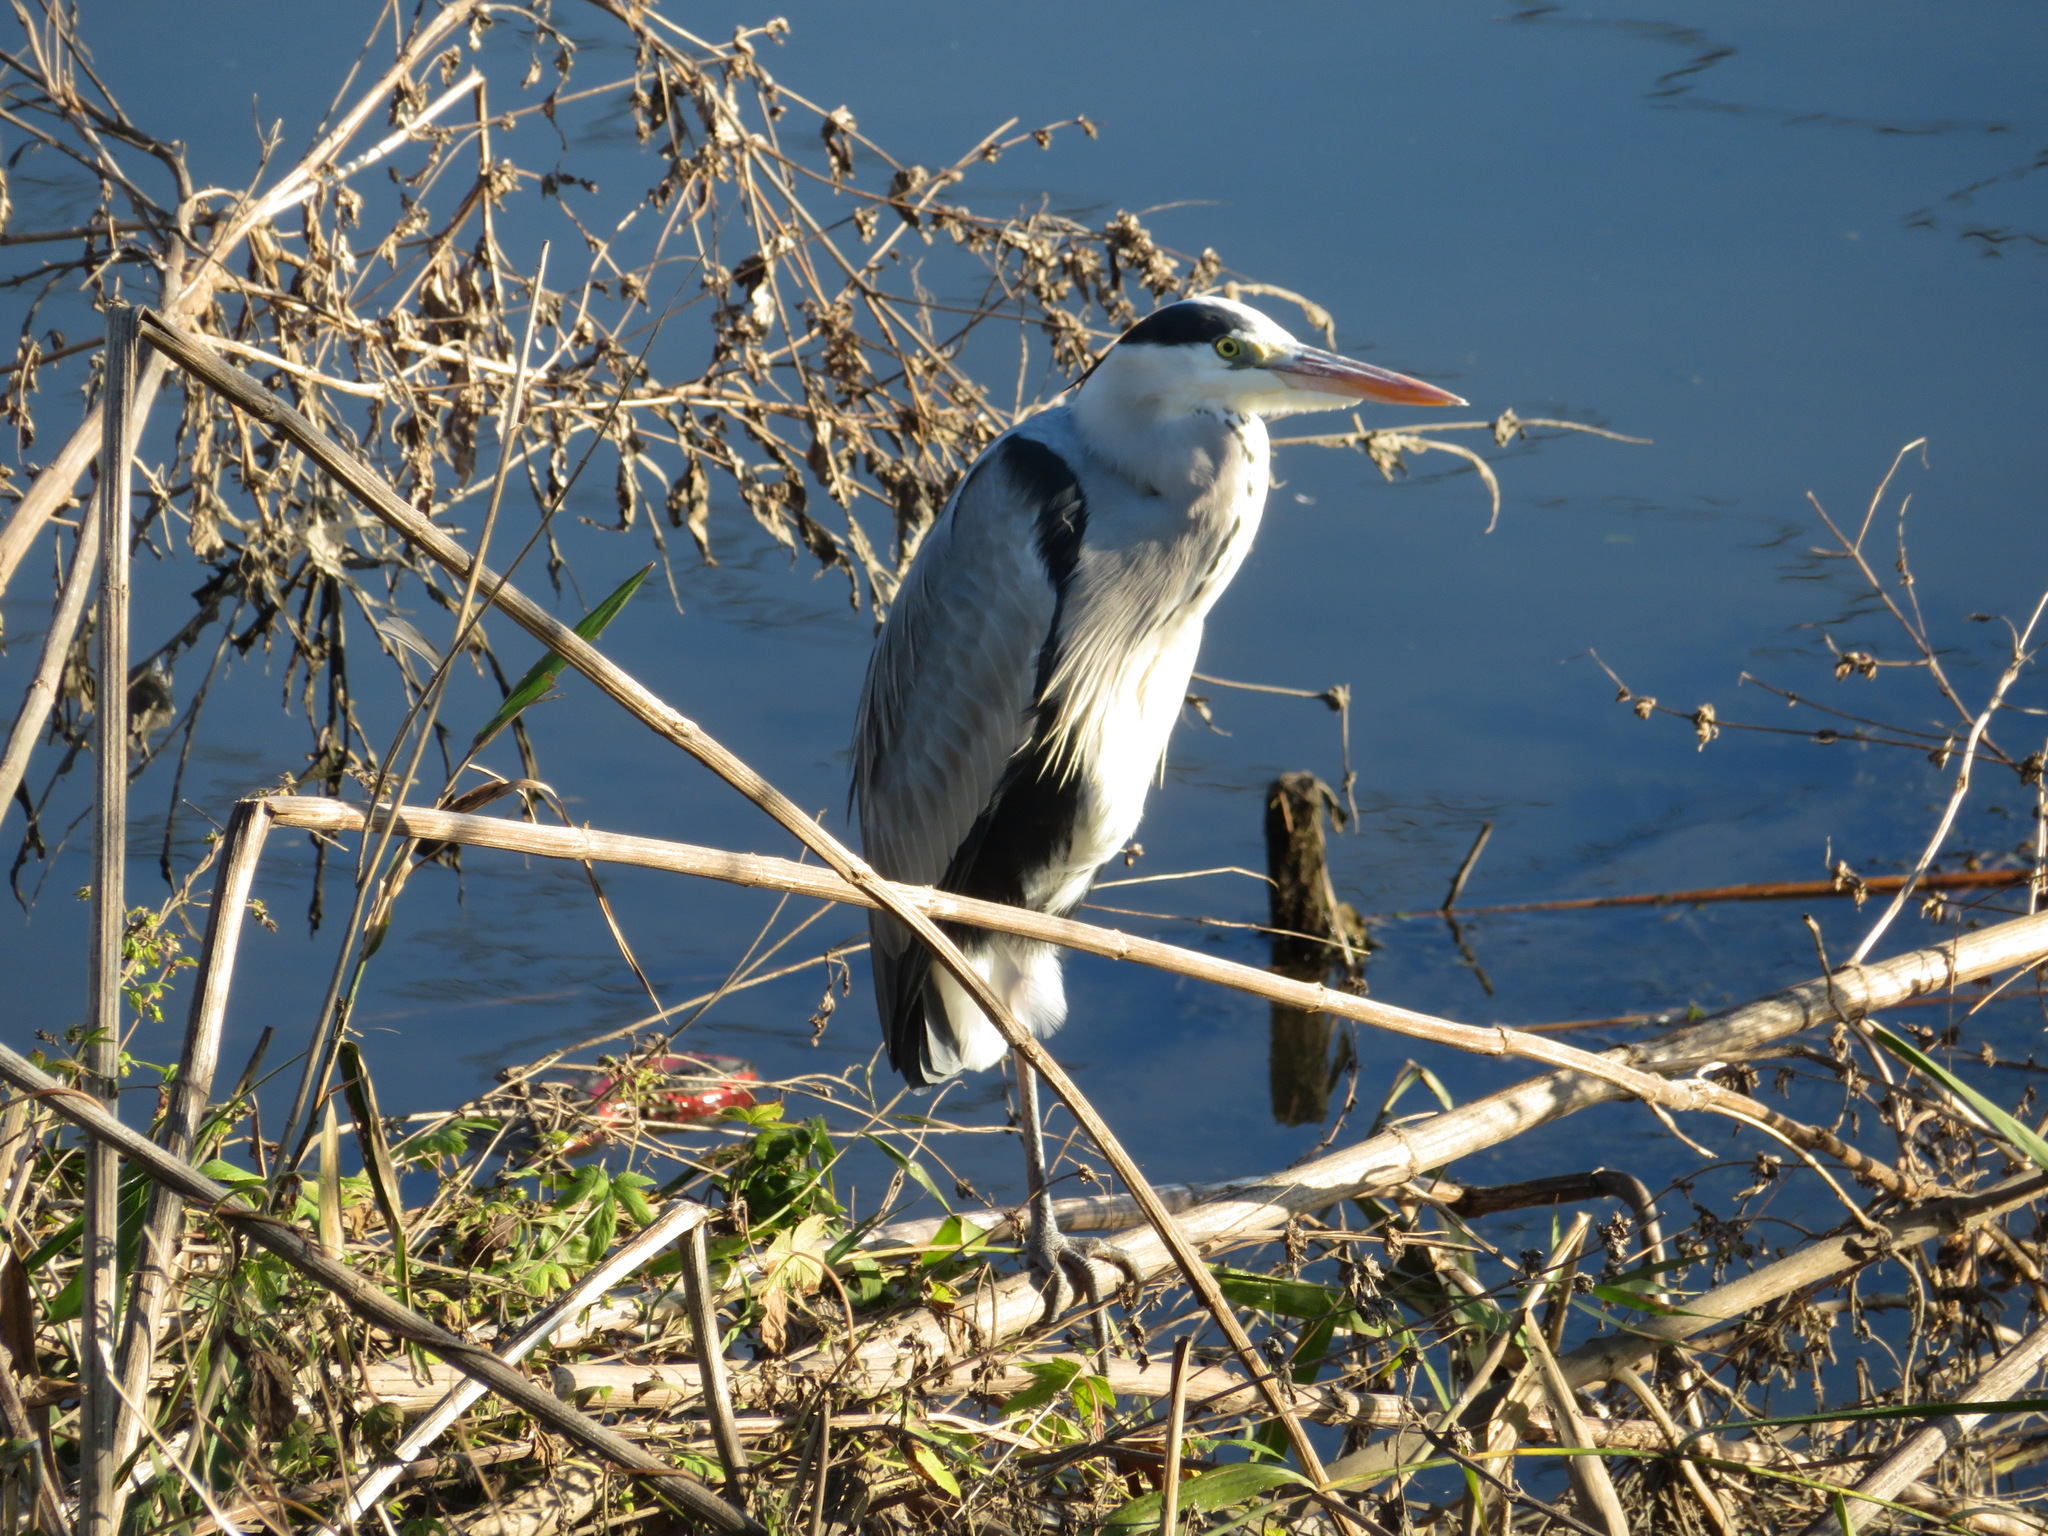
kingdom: Animalia
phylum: Chordata
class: Aves
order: Pelecaniformes
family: Ardeidae
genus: Ardea
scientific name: Ardea cinerea
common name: Grey heron
